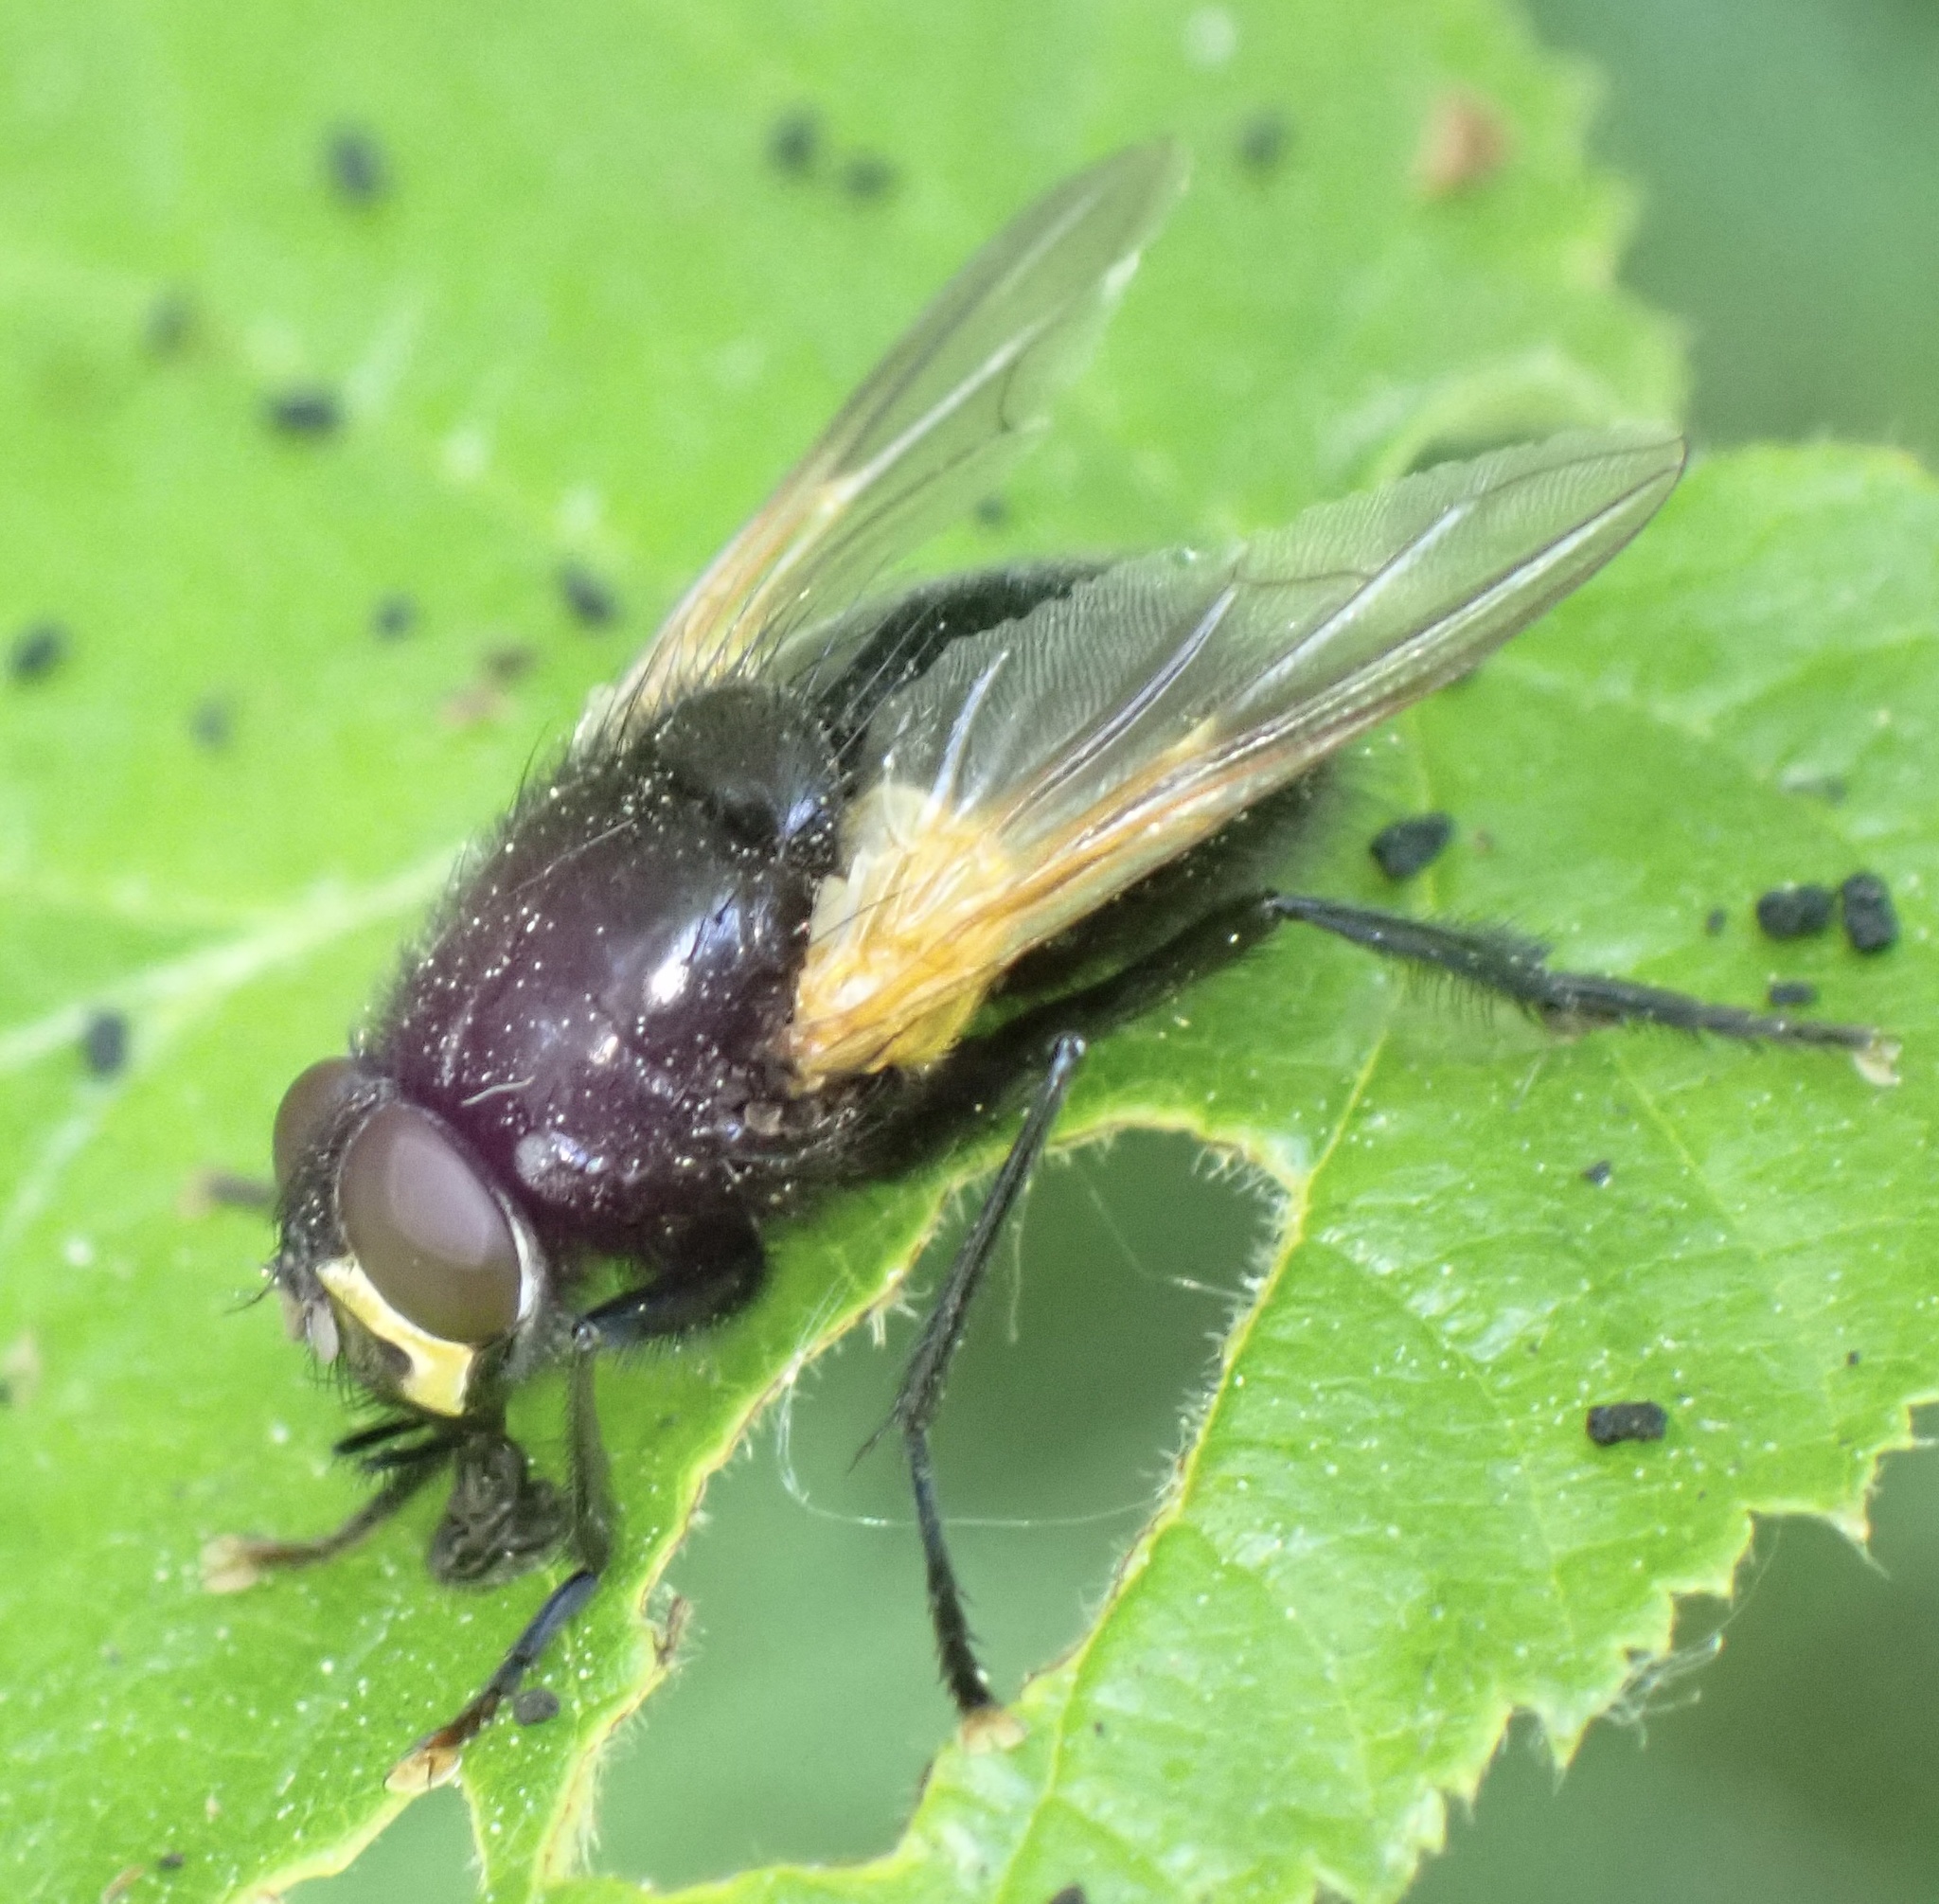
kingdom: Animalia
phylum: Arthropoda
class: Insecta
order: Diptera
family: Muscidae
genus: Mesembrina
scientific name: Mesembrina meridiana
